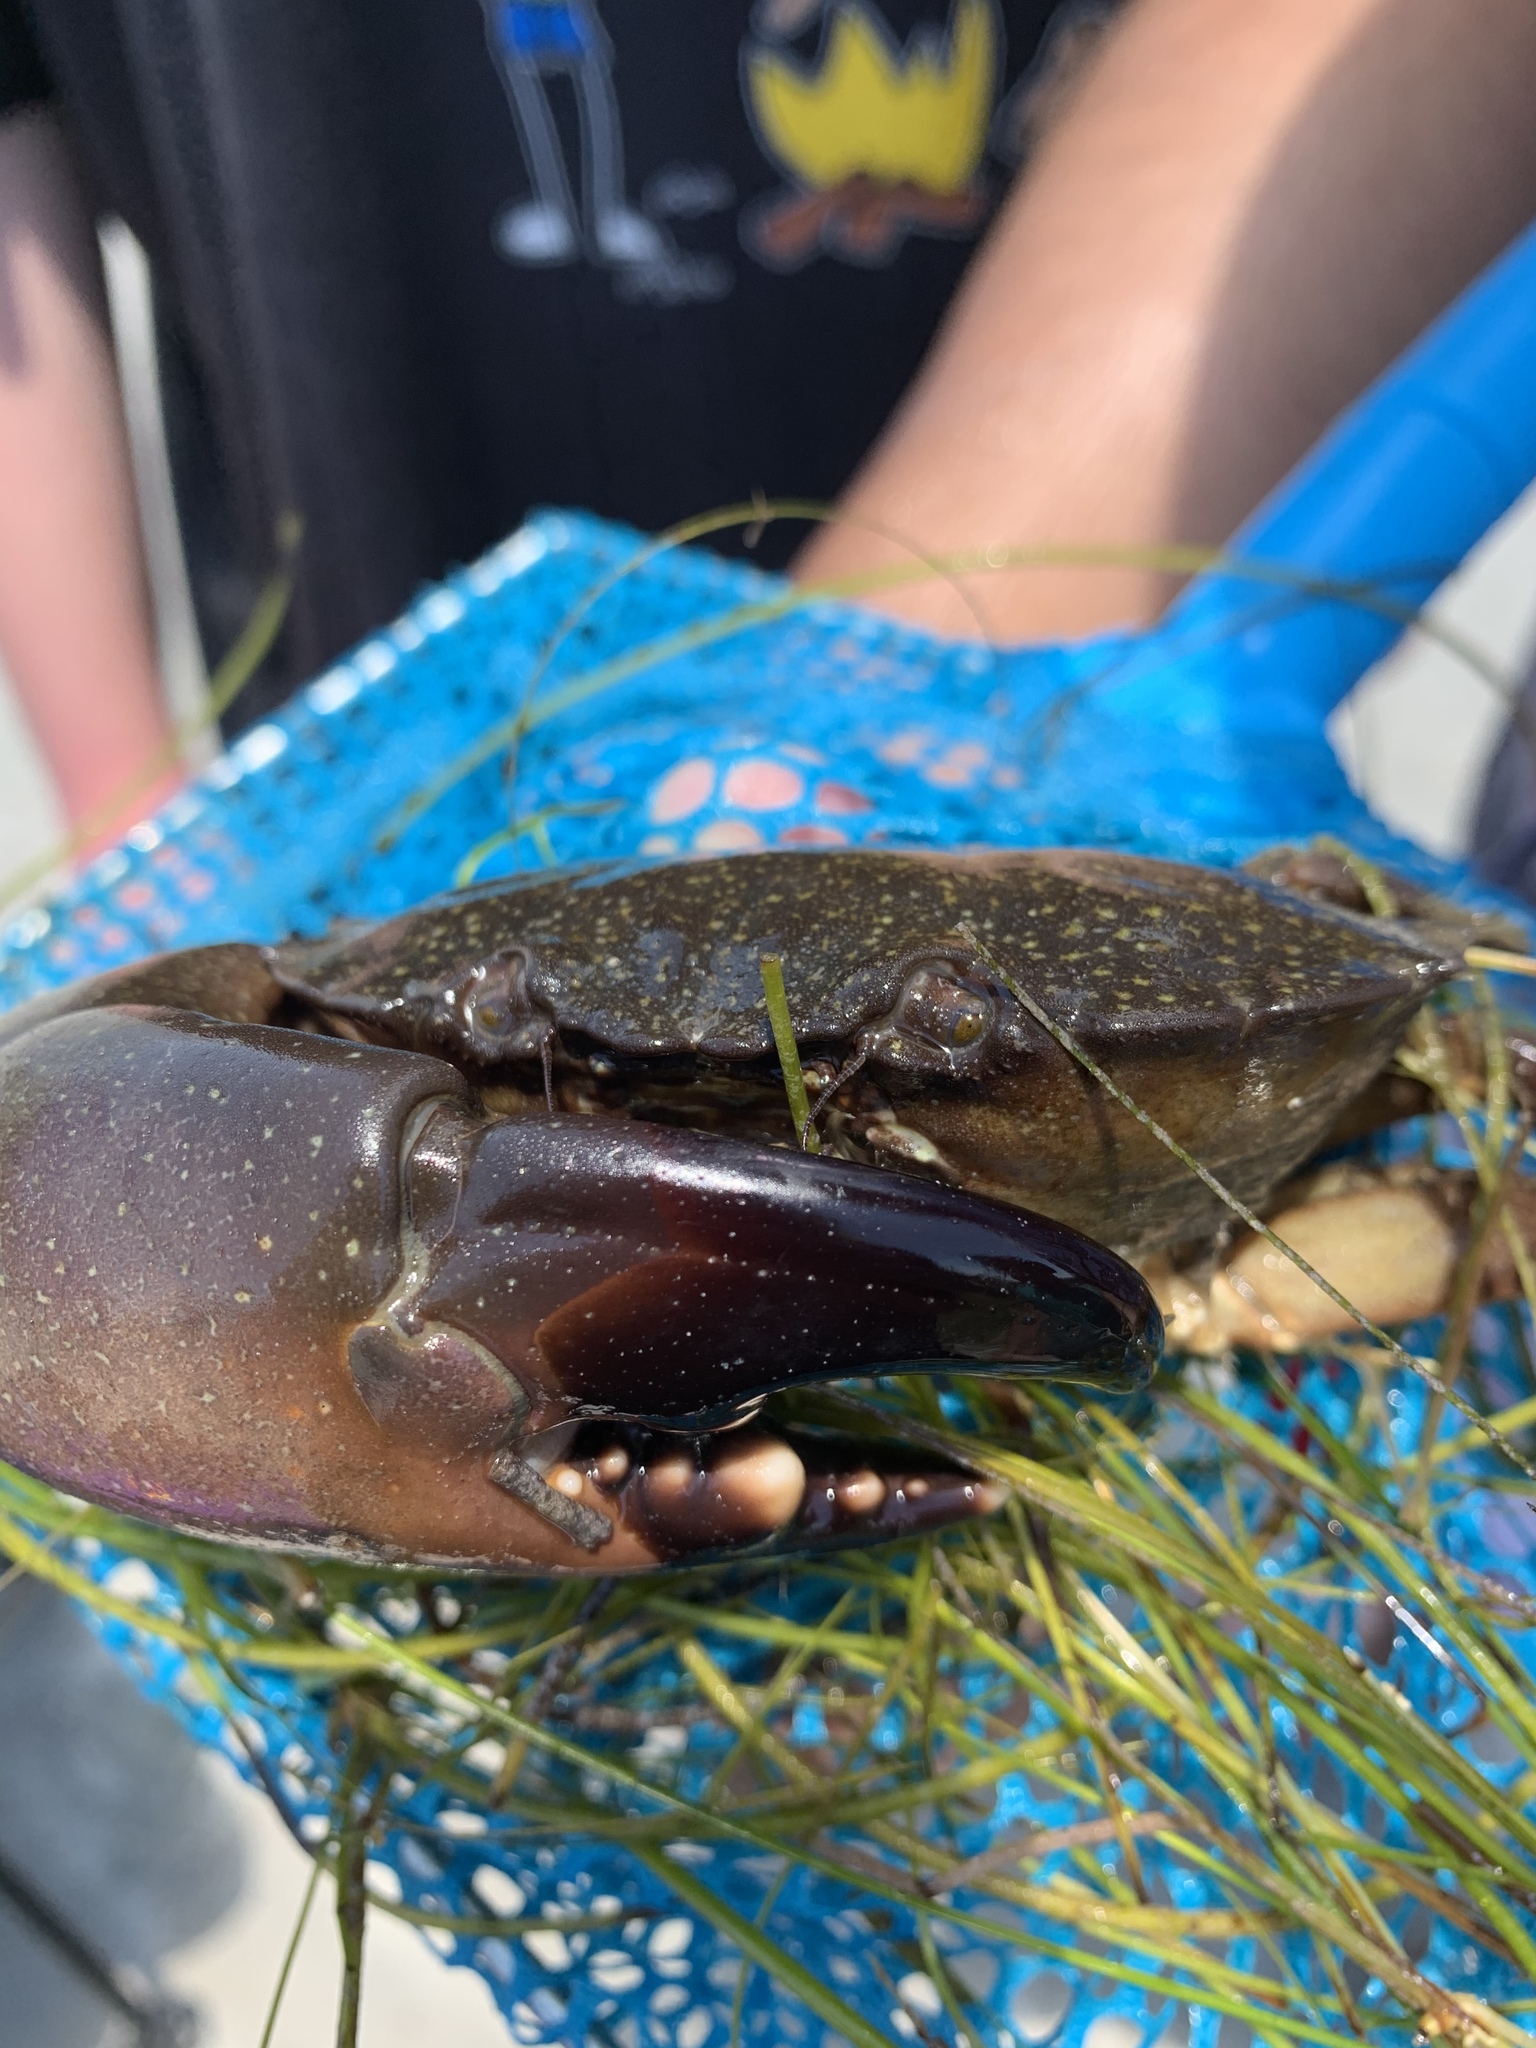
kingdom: Animalia
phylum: Arthropoda
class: Malacostraca
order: Decapoda
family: Menippidae
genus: Menippe
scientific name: Menippe adina
